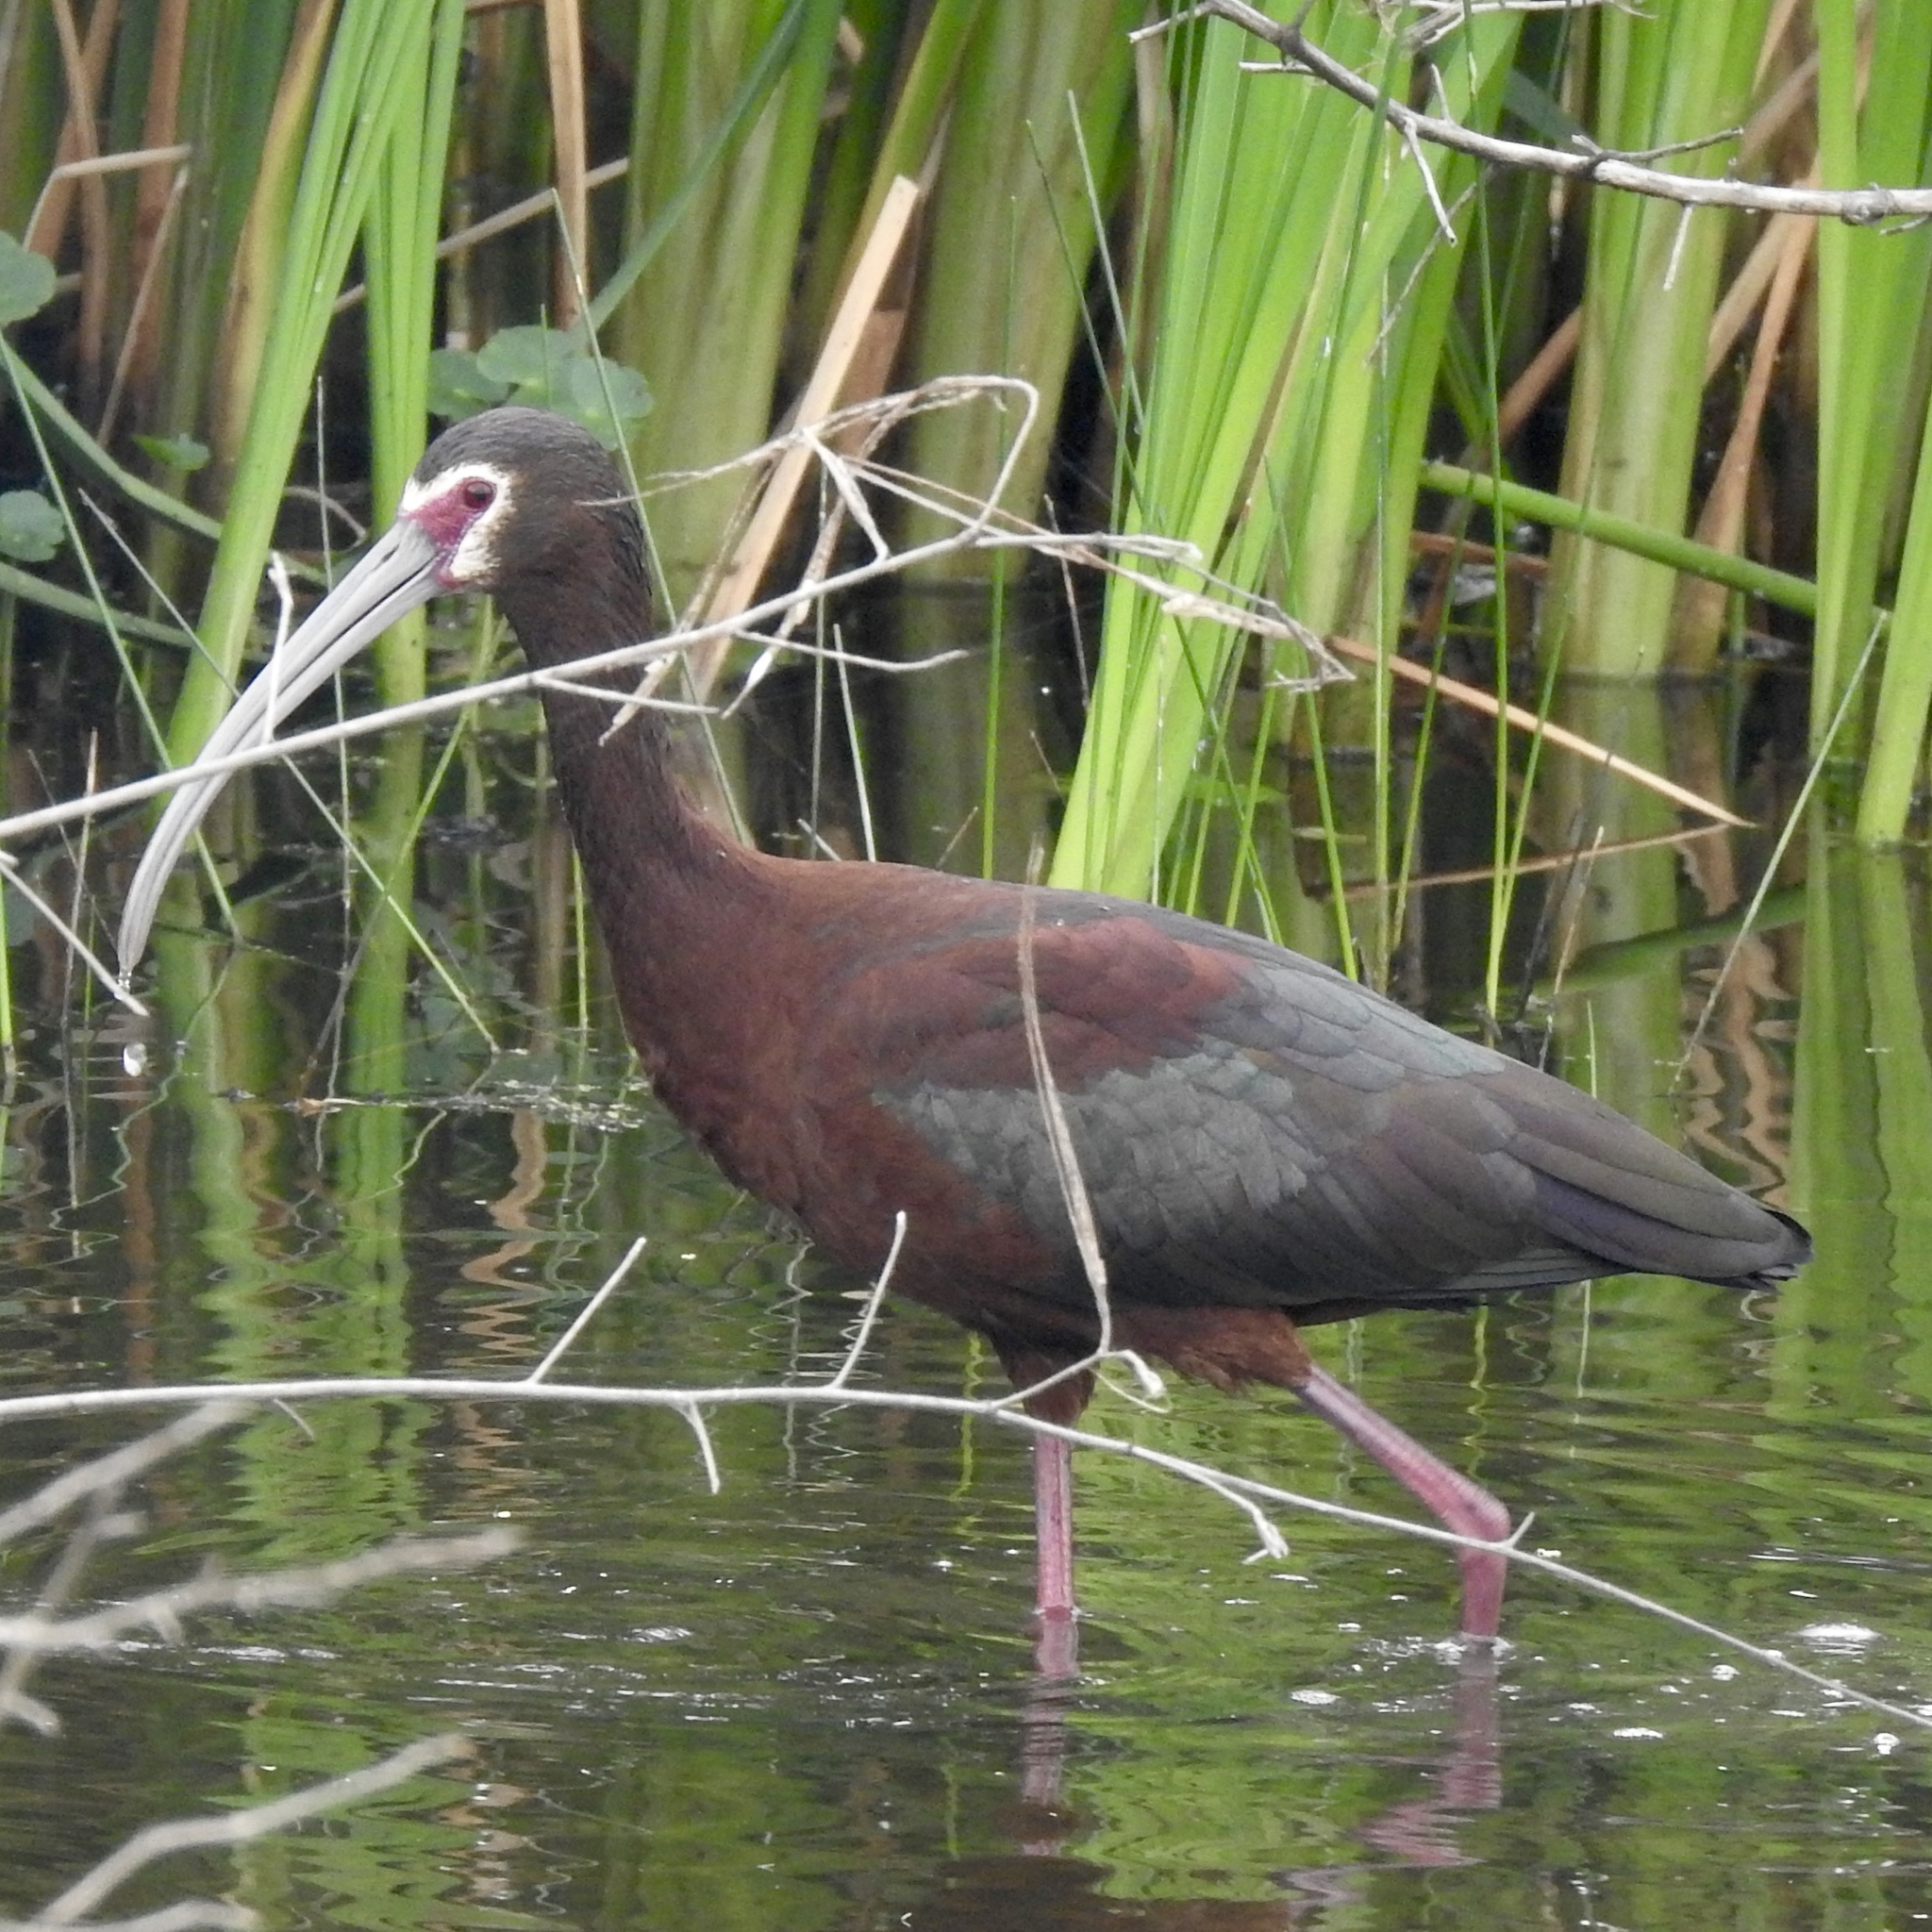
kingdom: Animalia
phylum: Chordata
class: Aves
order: Pelecaniformes
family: Threskiornithidae
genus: Plegadis
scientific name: Plegadis chihi
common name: White-faced ibis
